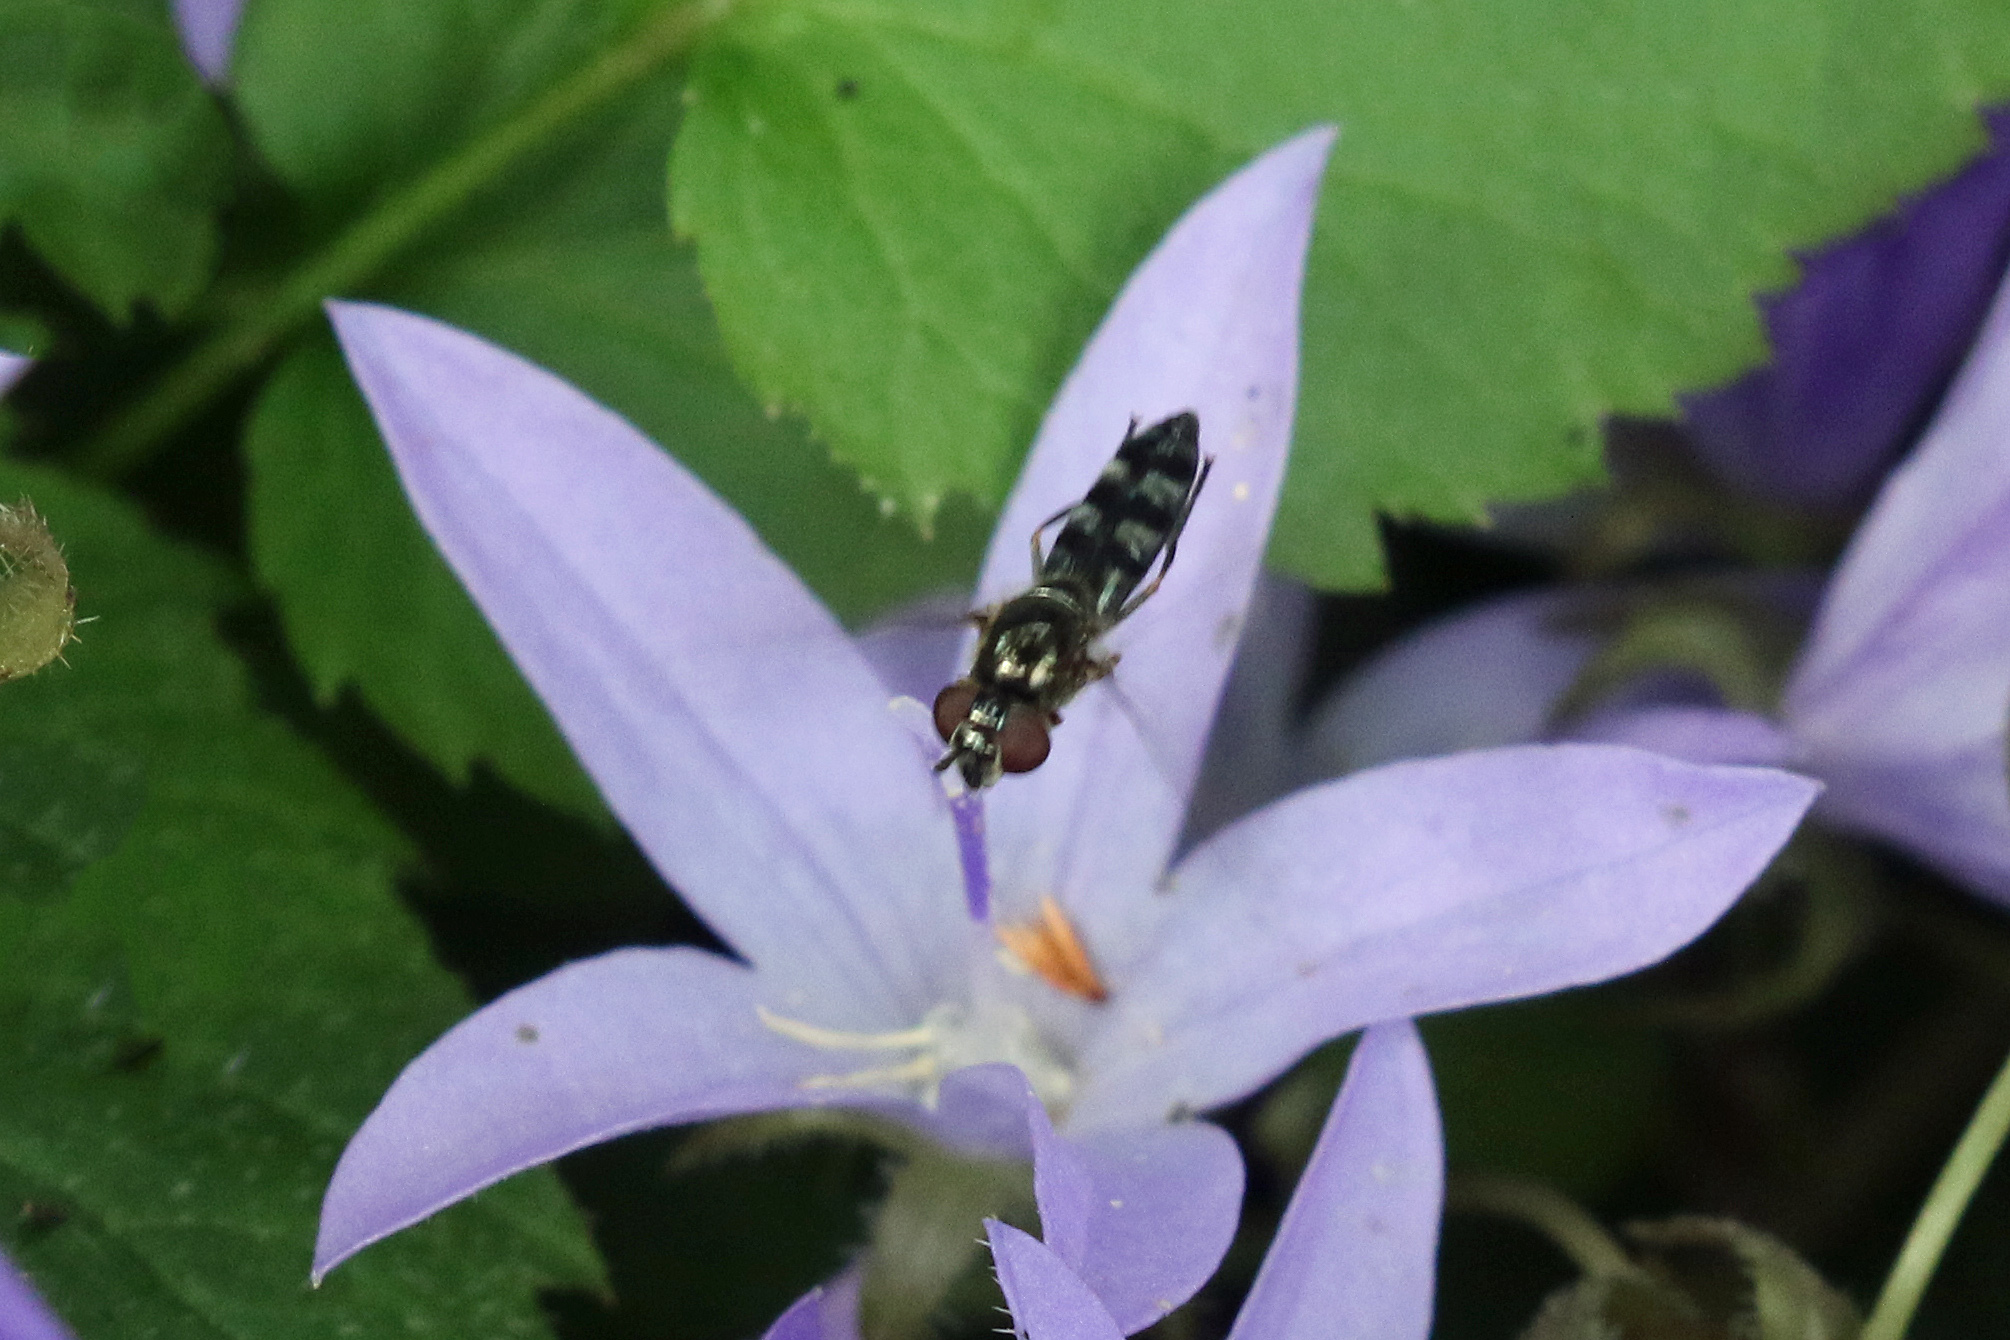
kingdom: Animalia
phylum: Arthropoda
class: Insecta
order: Diptera
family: Syrphidae
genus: Platycheirus
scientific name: Platycheirus albimanus
